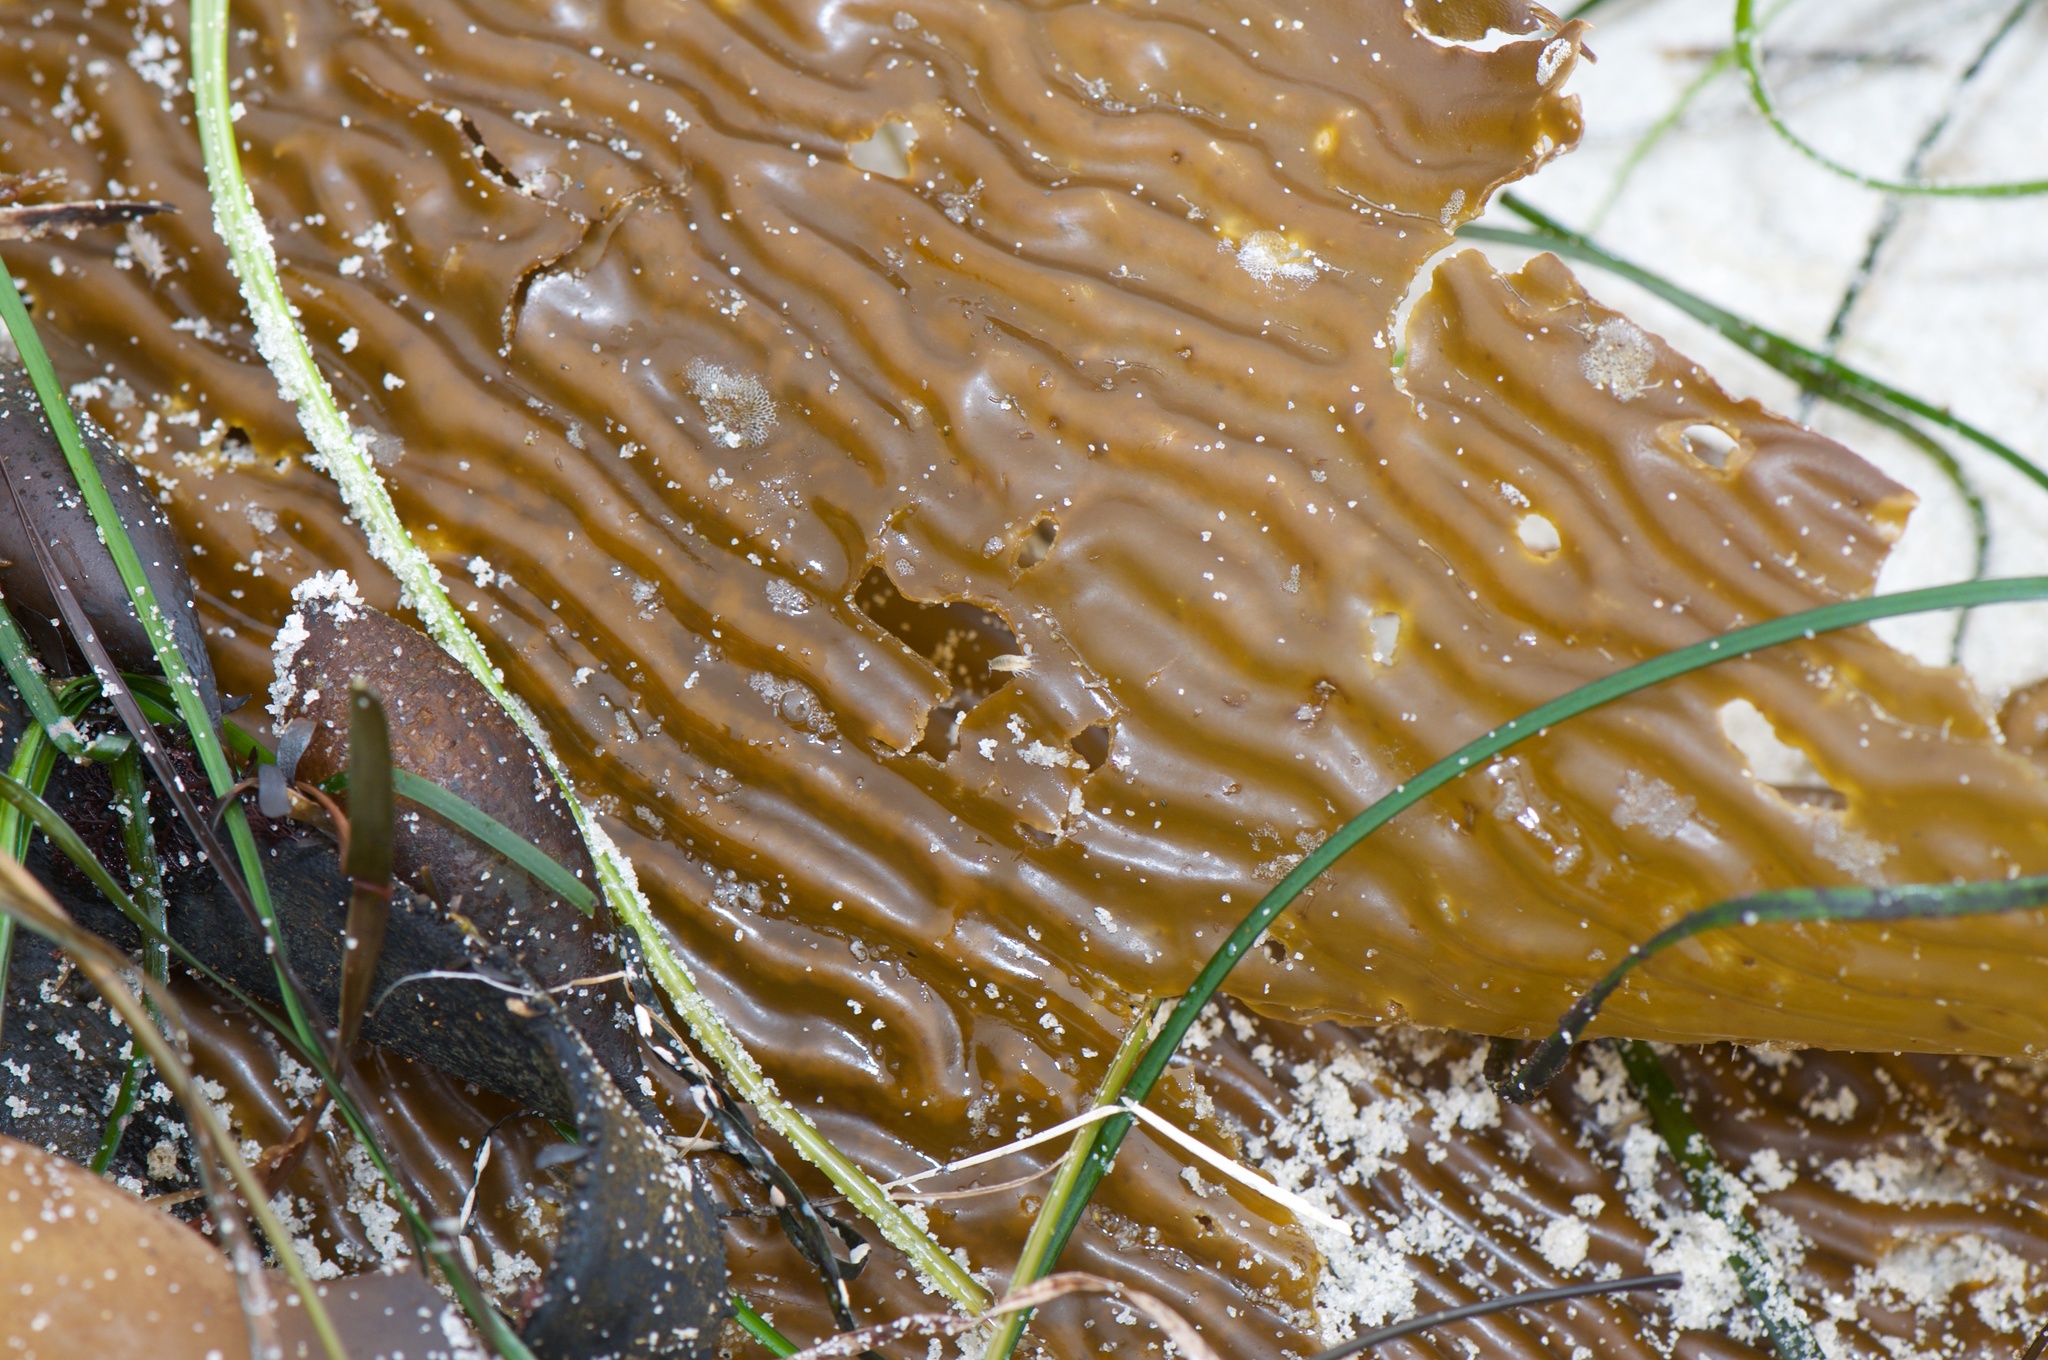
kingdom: Chromista
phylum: Ochrophyta
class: Phaeophyceae
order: Laminariales
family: Laminariaceae
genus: Macrocystis
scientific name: Macrocystis pyrifera
